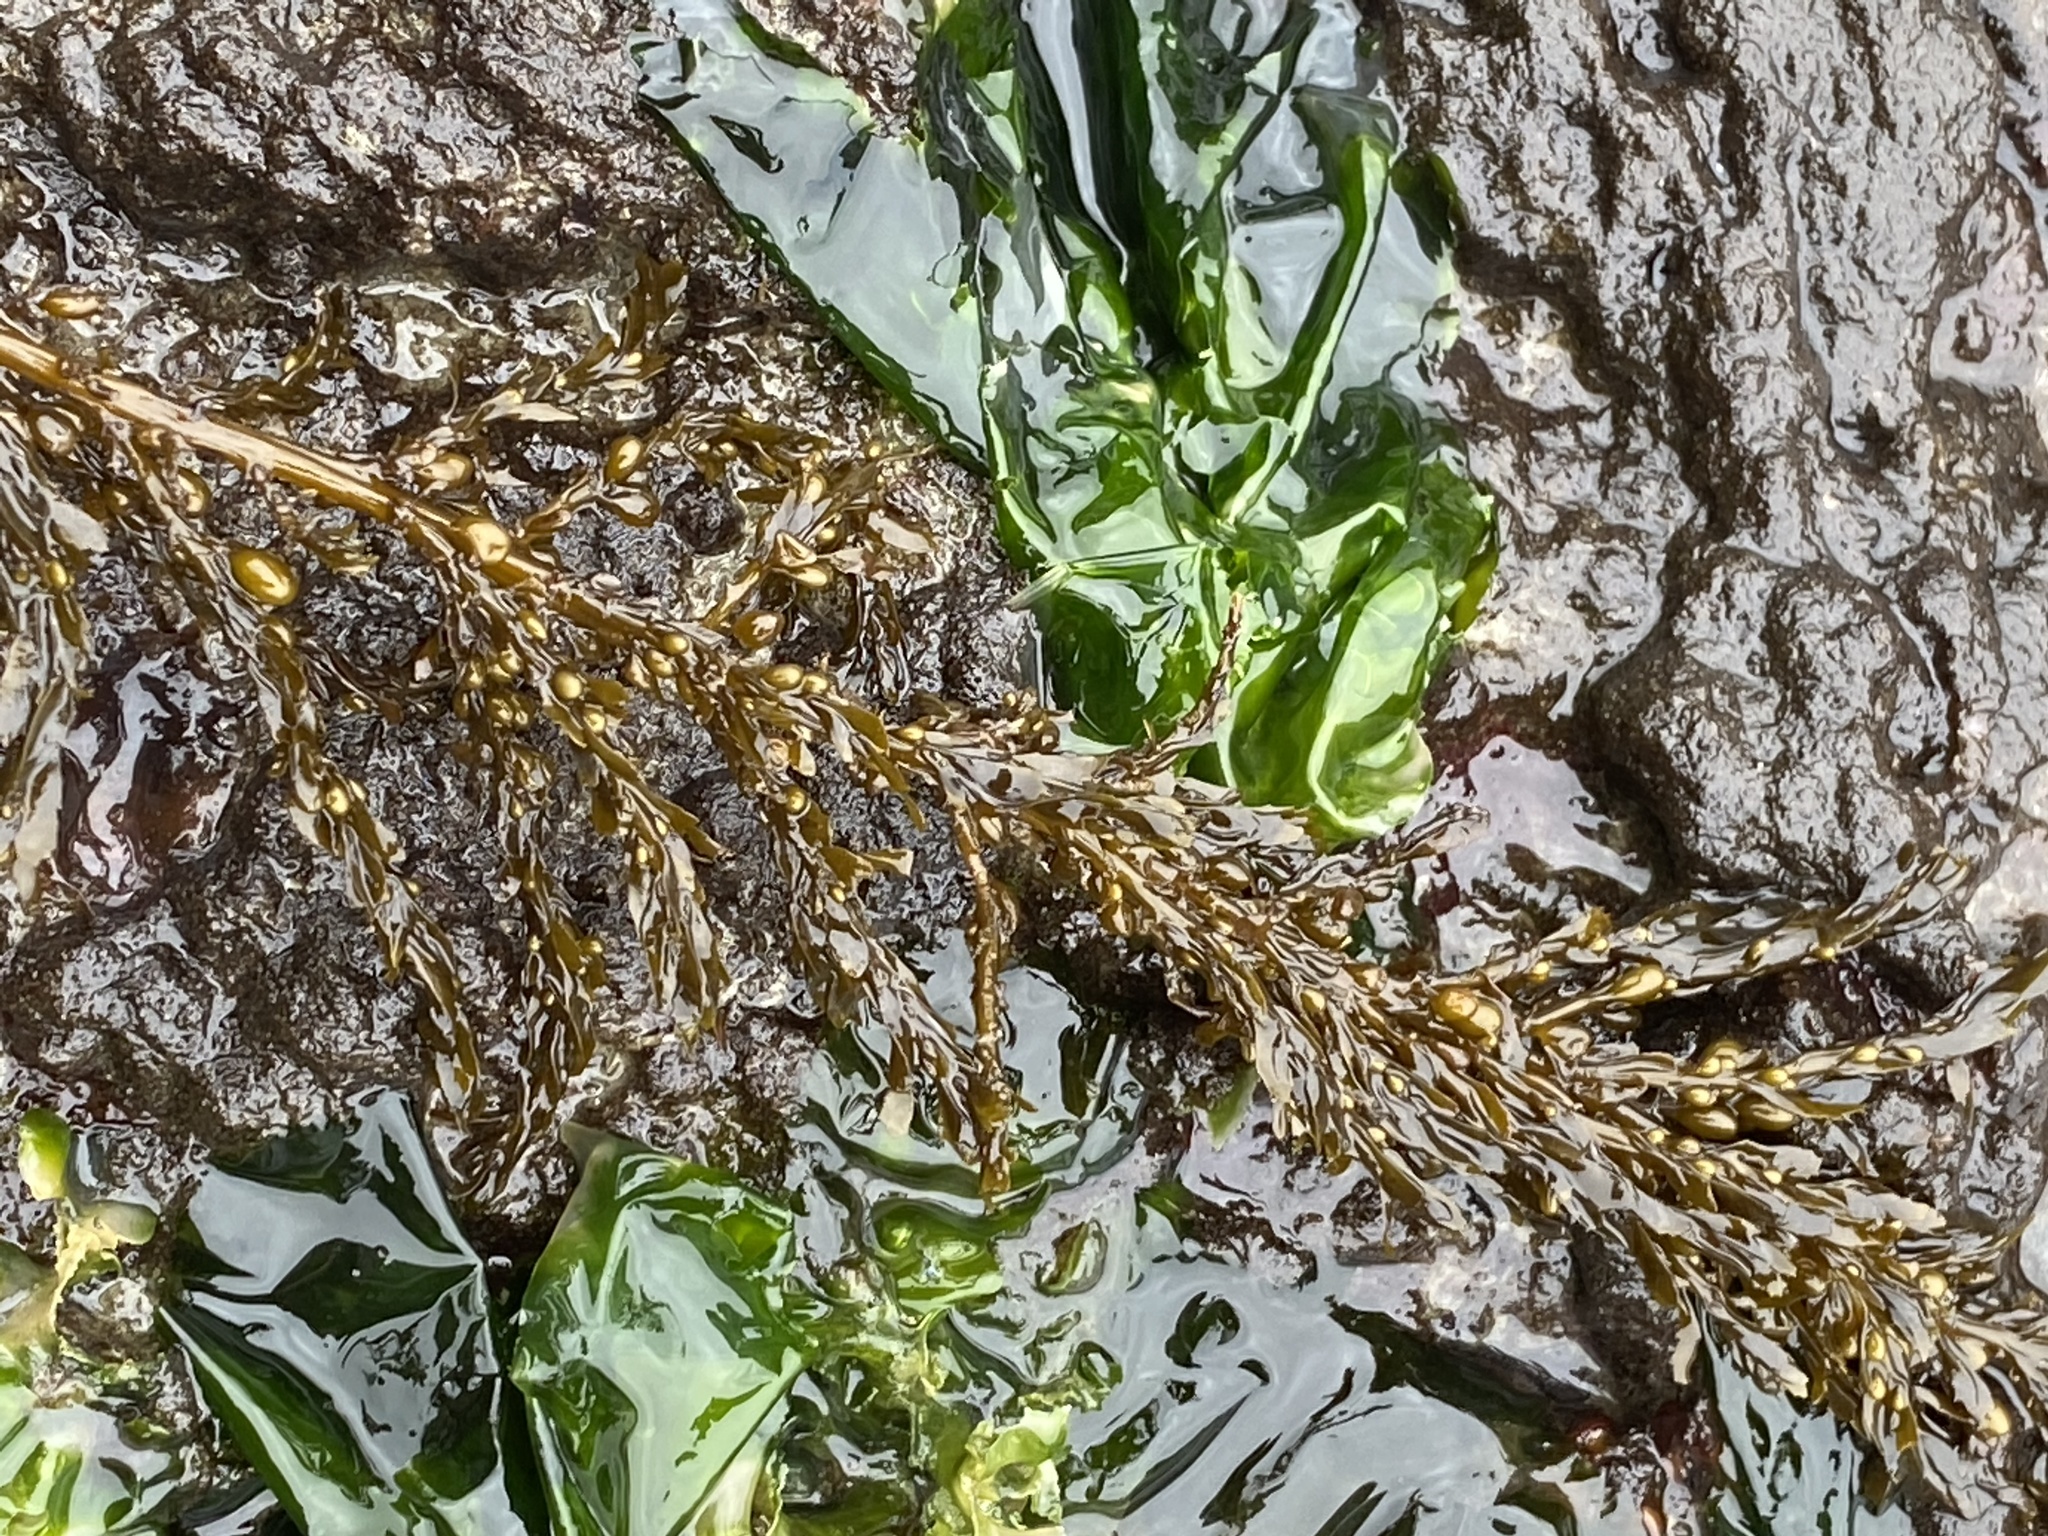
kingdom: Chromista
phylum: Ochrophyta
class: Phaeophyceae
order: Fucales
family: Sargassaceae
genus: Sargassum
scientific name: Sargassum muticum
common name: Japweed
